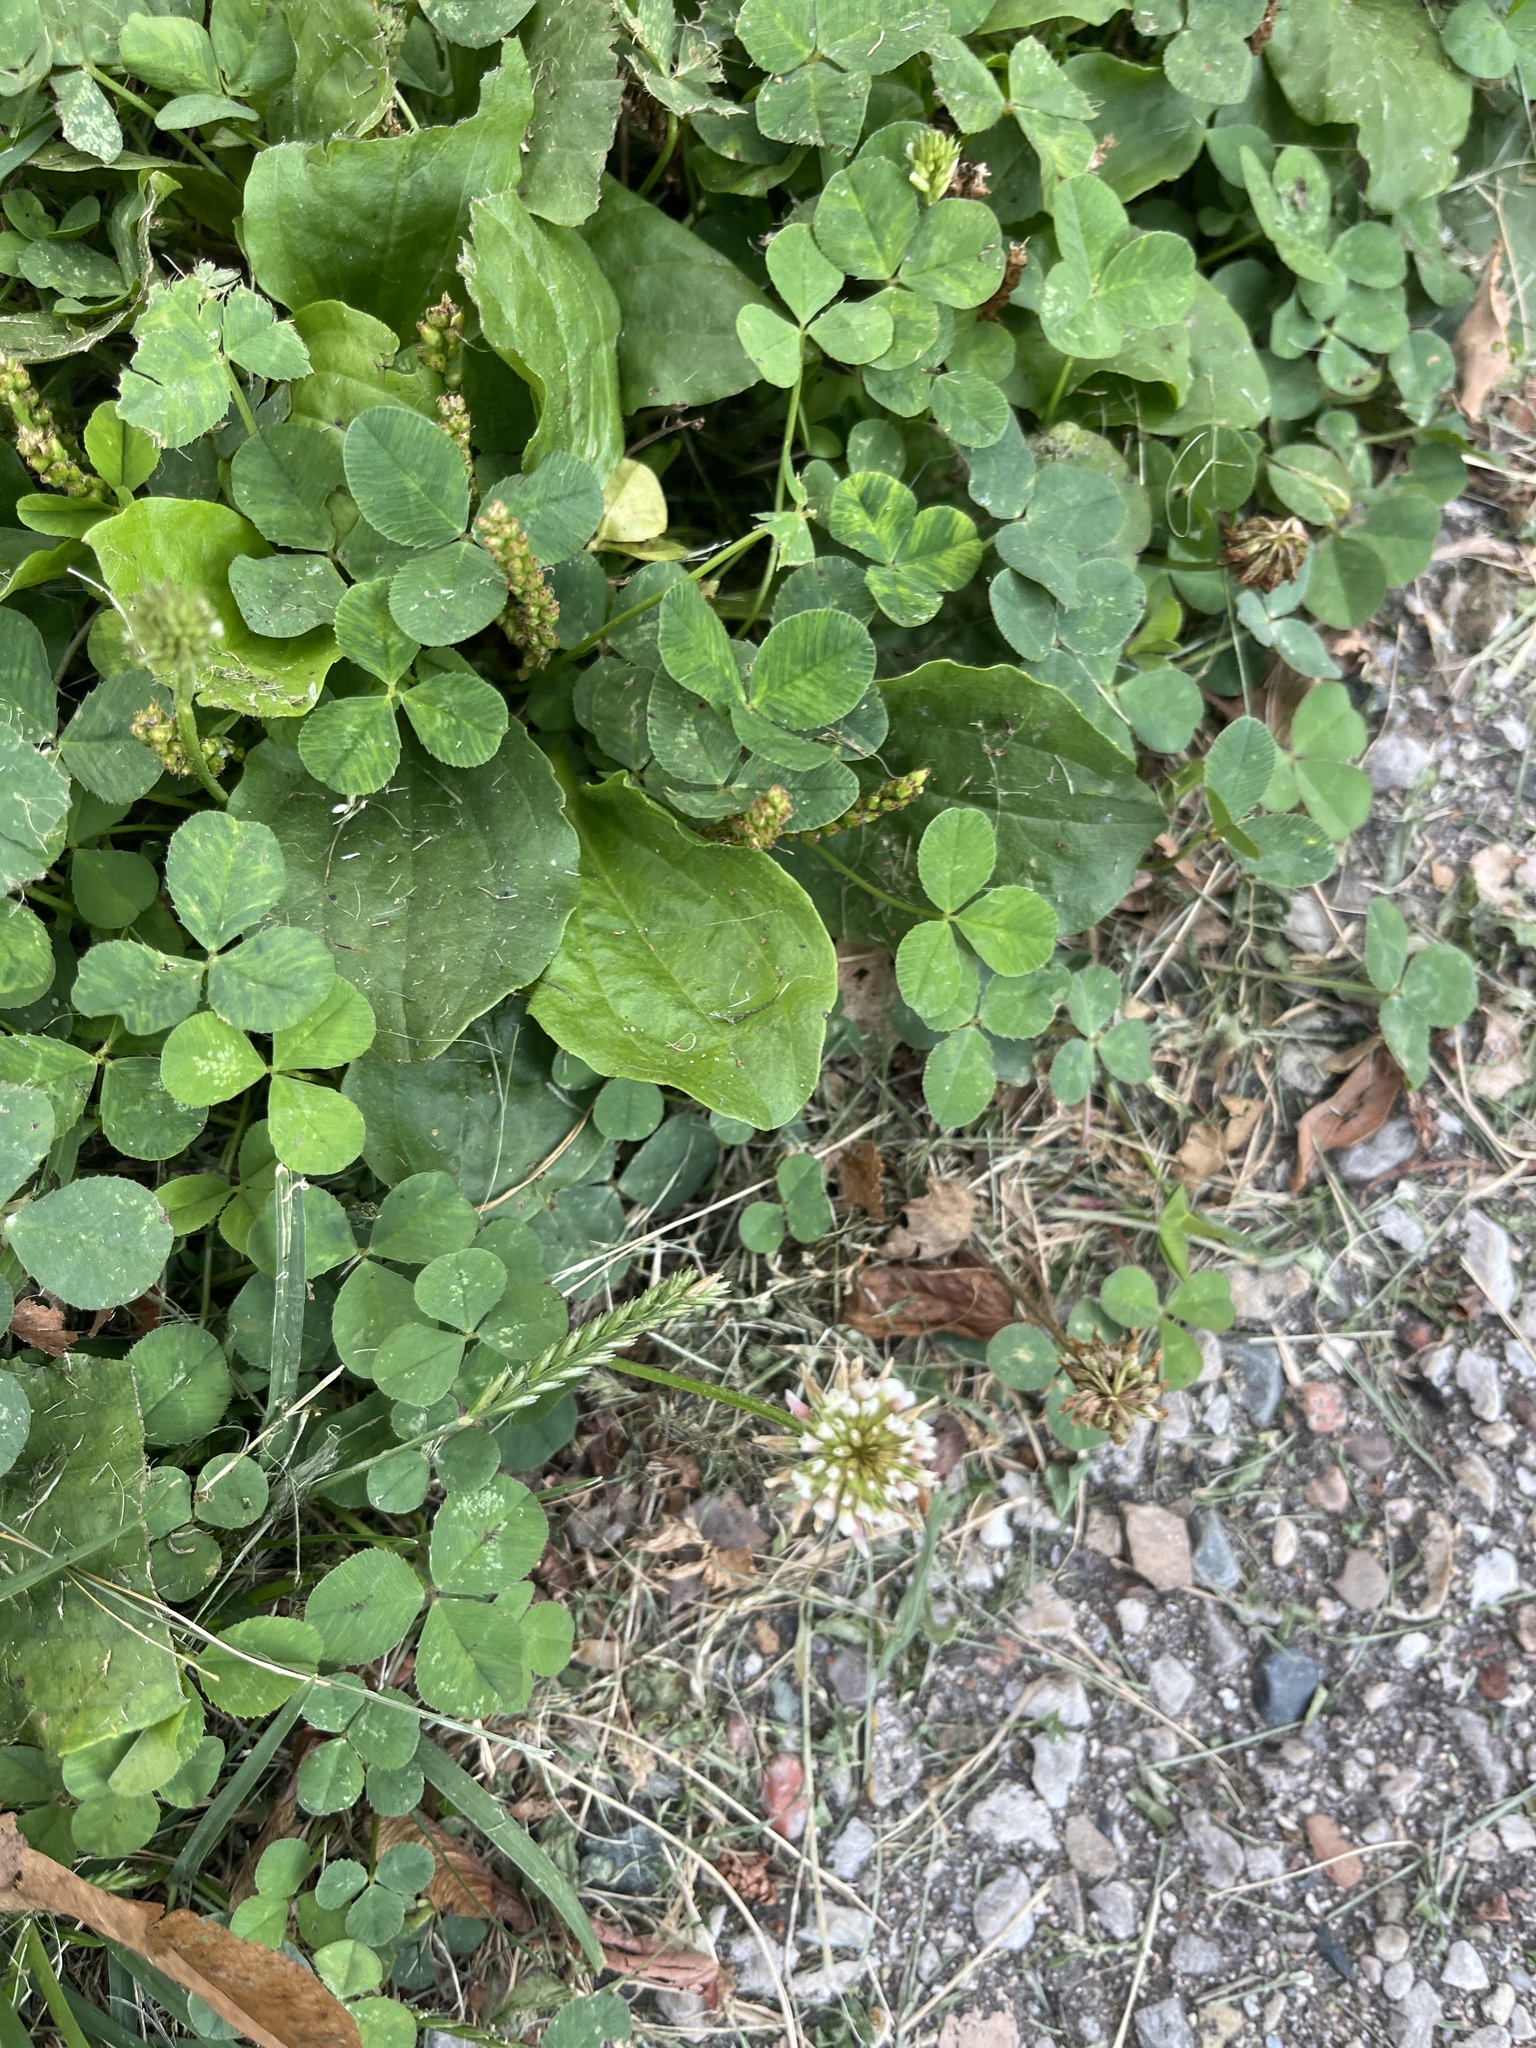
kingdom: Plantae
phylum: Tracheophyta
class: Magnoliopsida
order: Fabales
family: Fabaceae
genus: Trifolium
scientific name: Trifolium repens
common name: White clover
